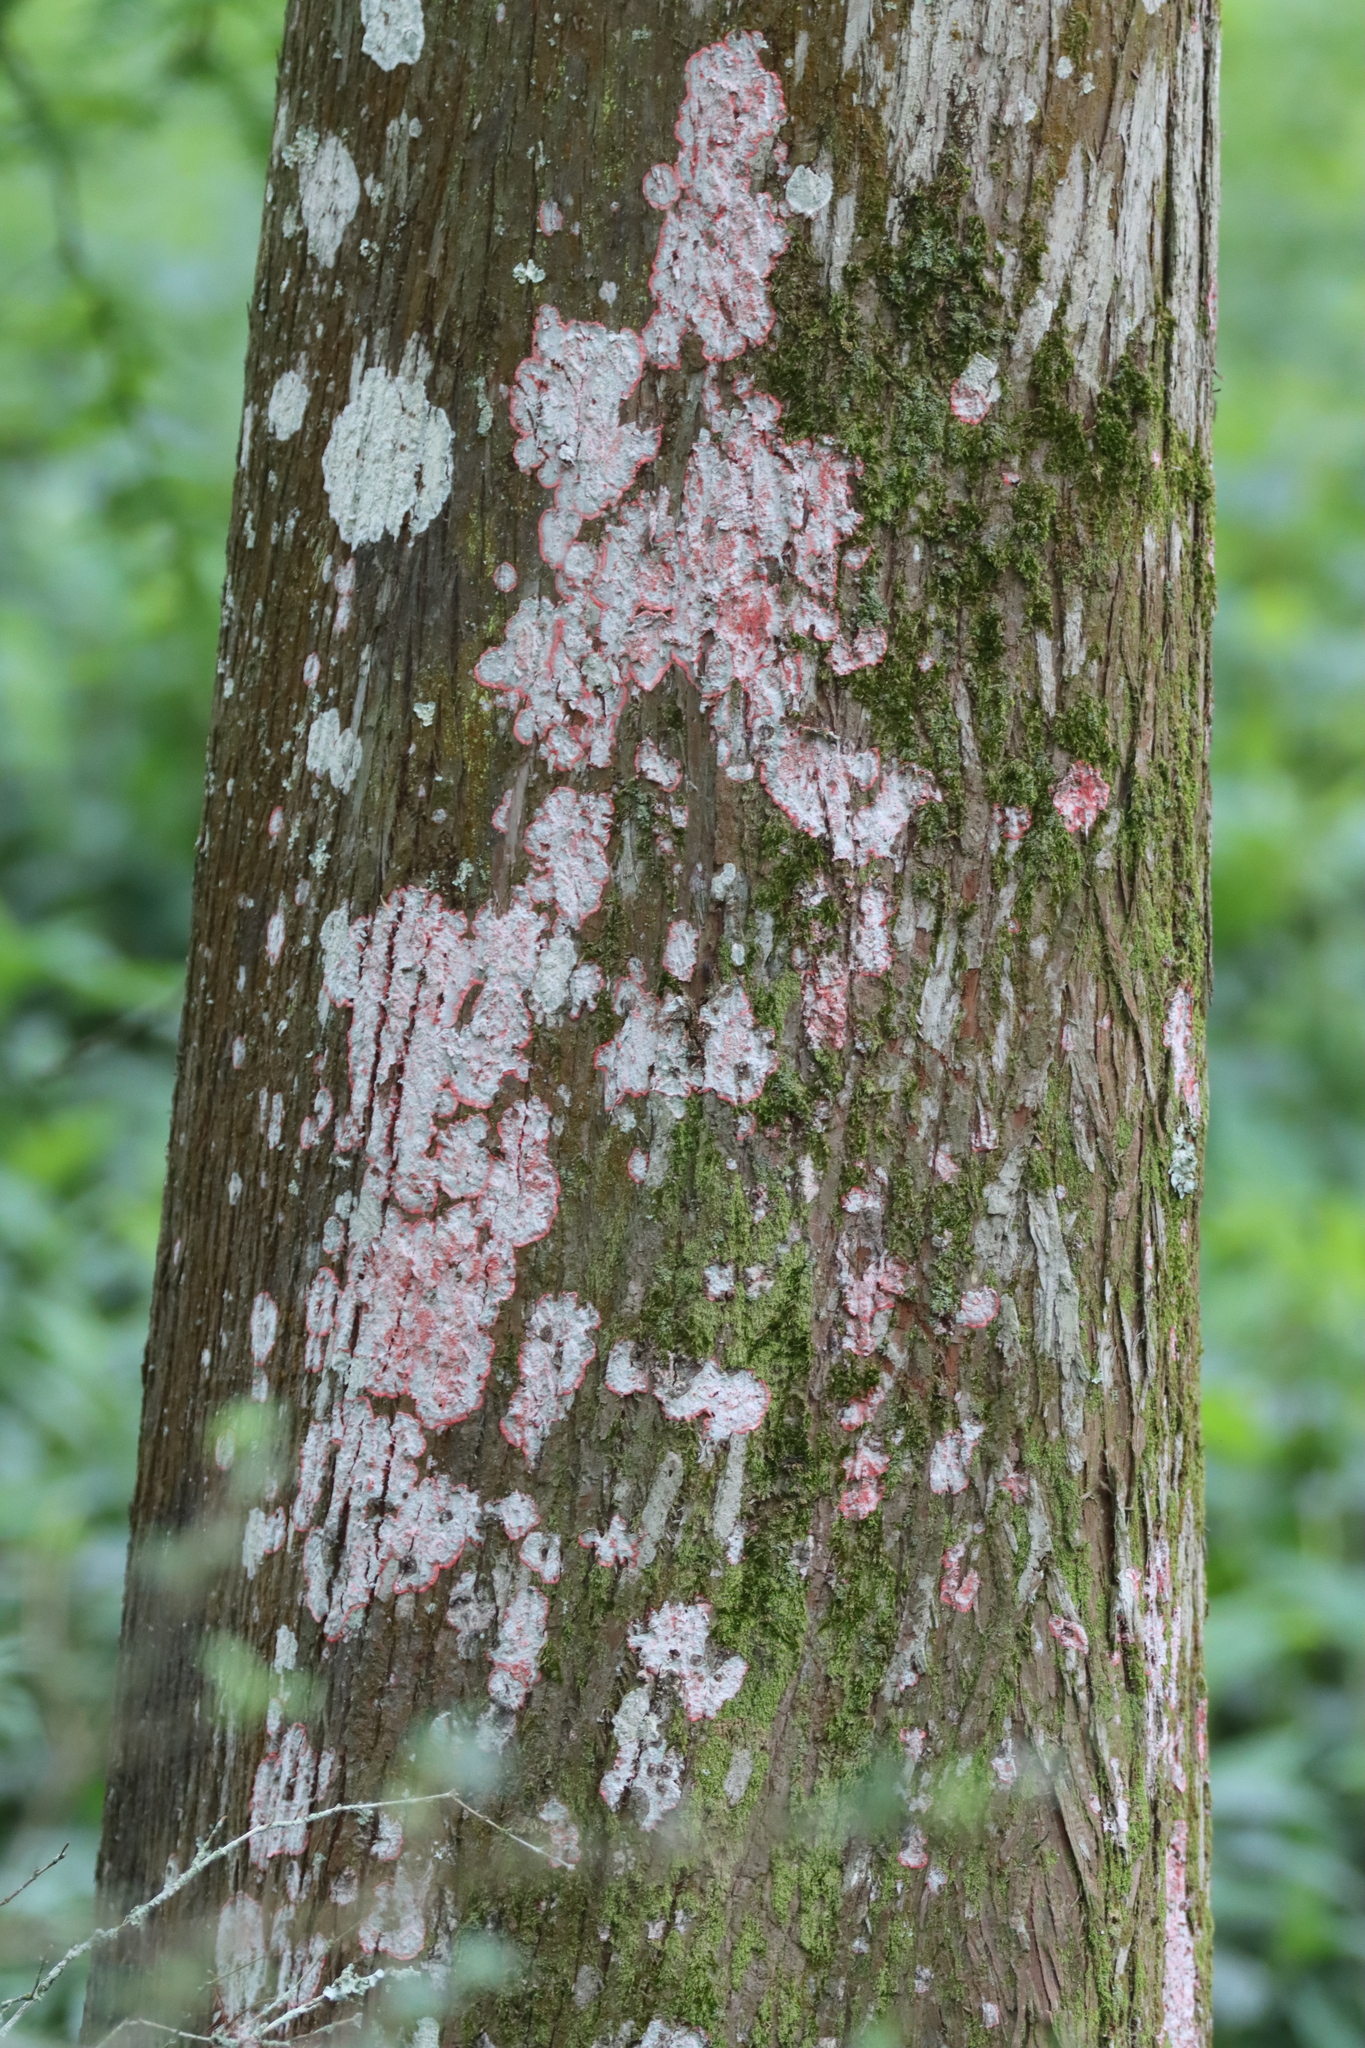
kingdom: Fungi
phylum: Ascomycota
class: Arthoniomycetes
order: Arthoniales
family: Arthoniaceae
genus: Herpothallon
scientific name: Herpothallon rubrocinctum
